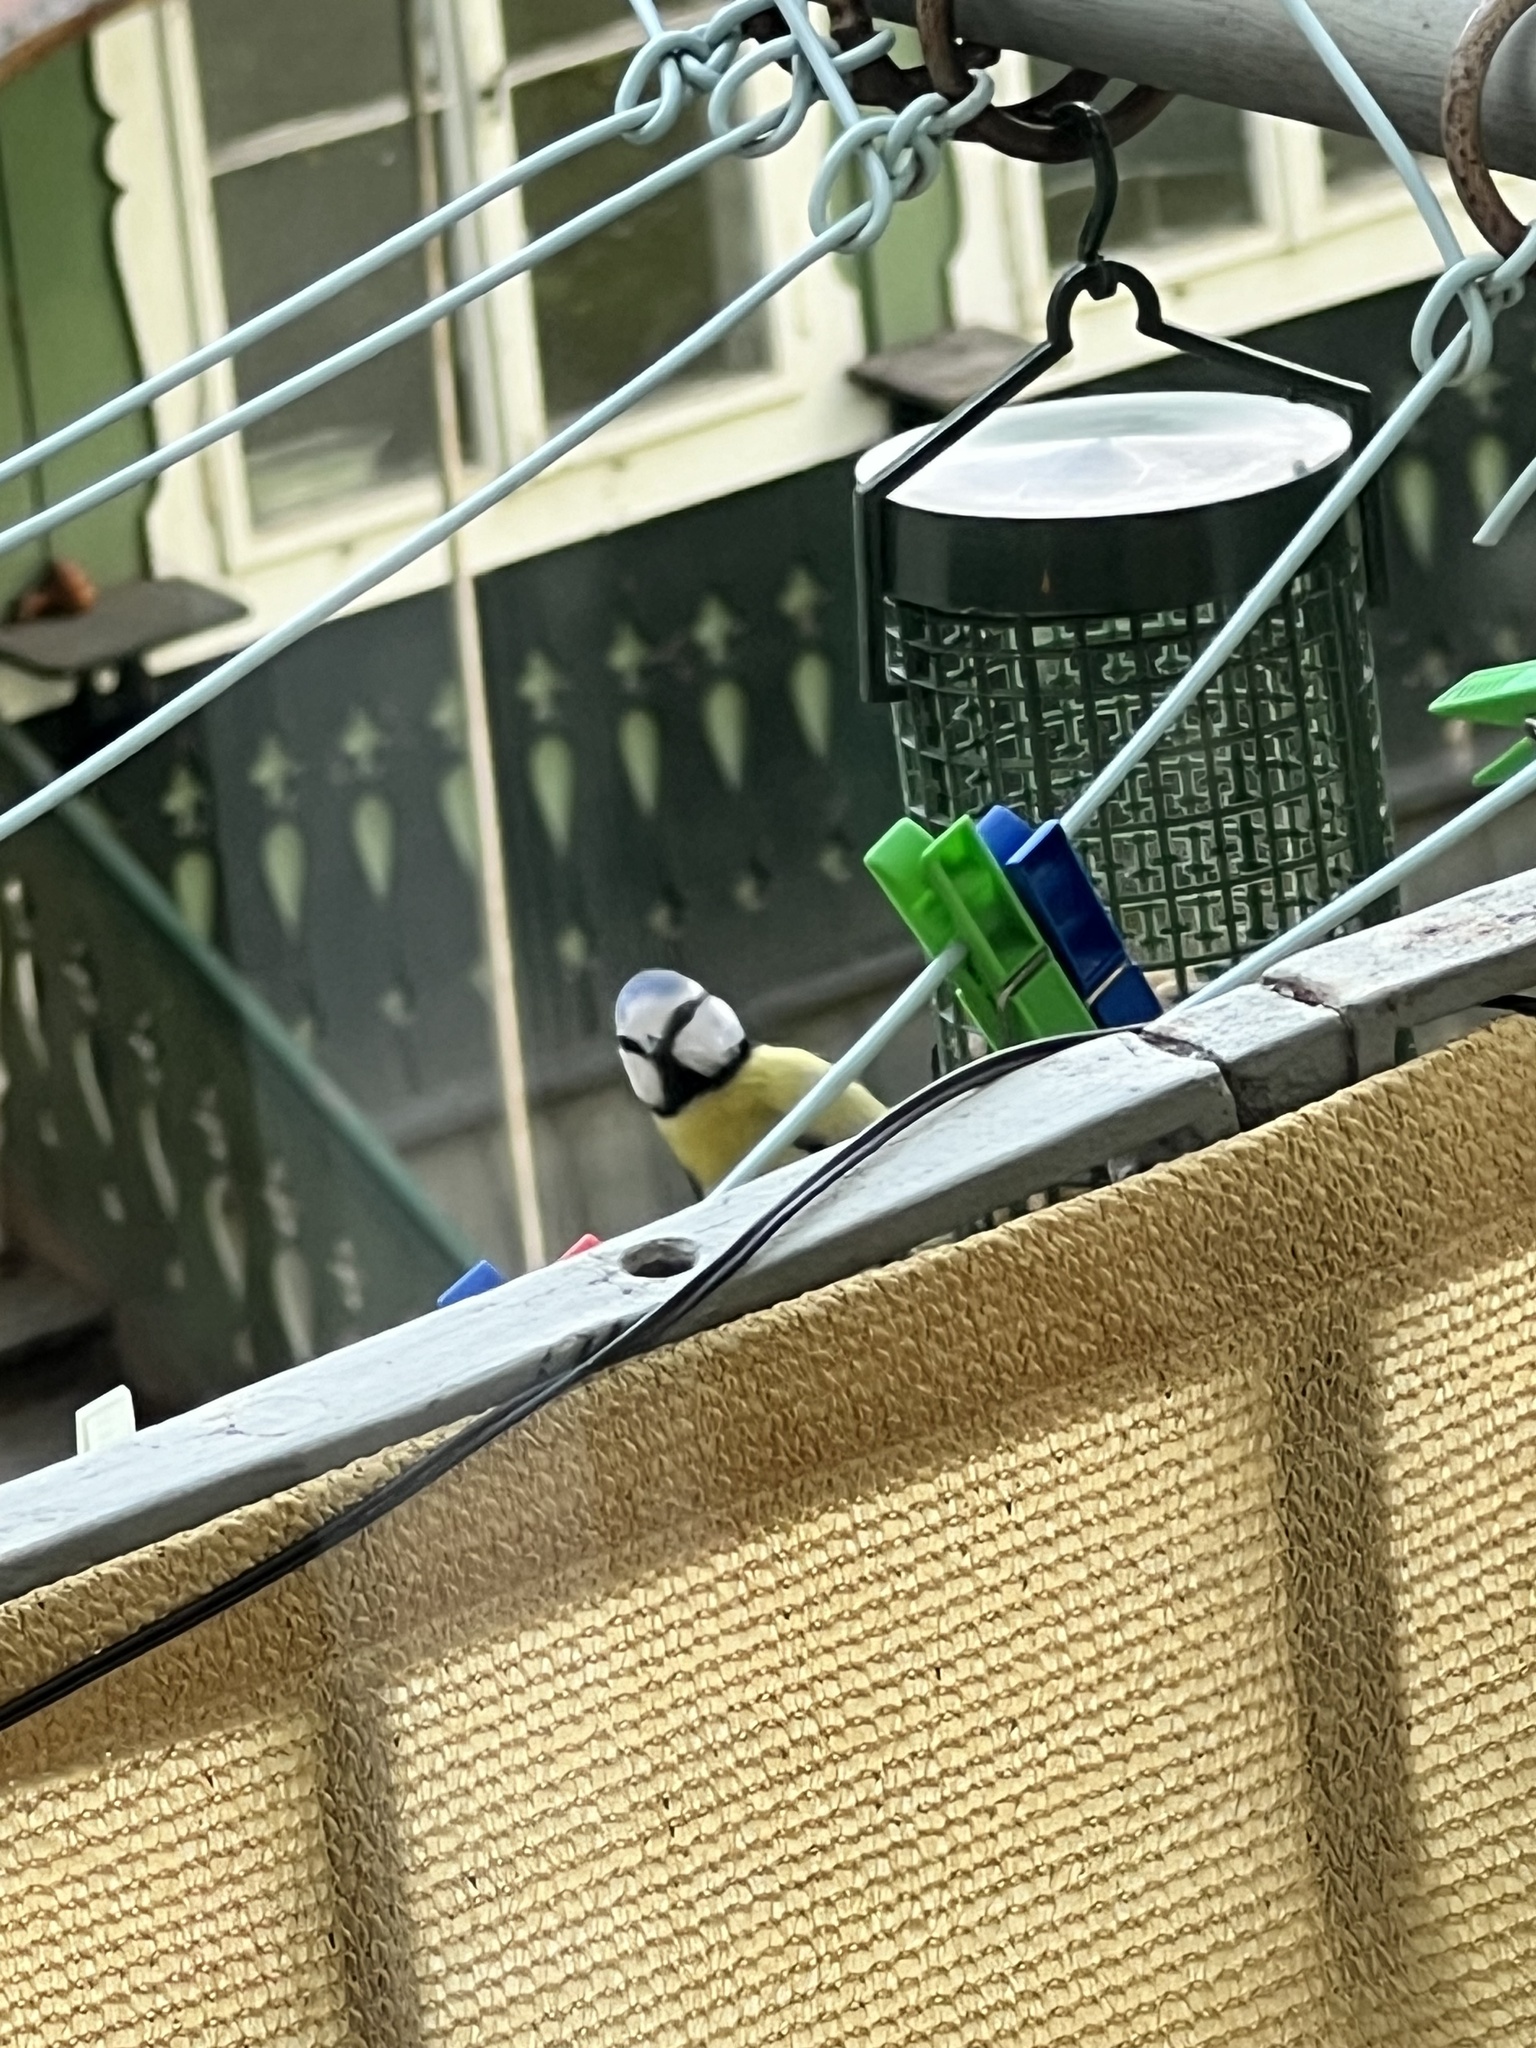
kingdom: Animalia
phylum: Chordata
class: Aves
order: Passeriformes
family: Paridae
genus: Cyanistes
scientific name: Cyanistes caeruleus
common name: Eurasian blue tit
